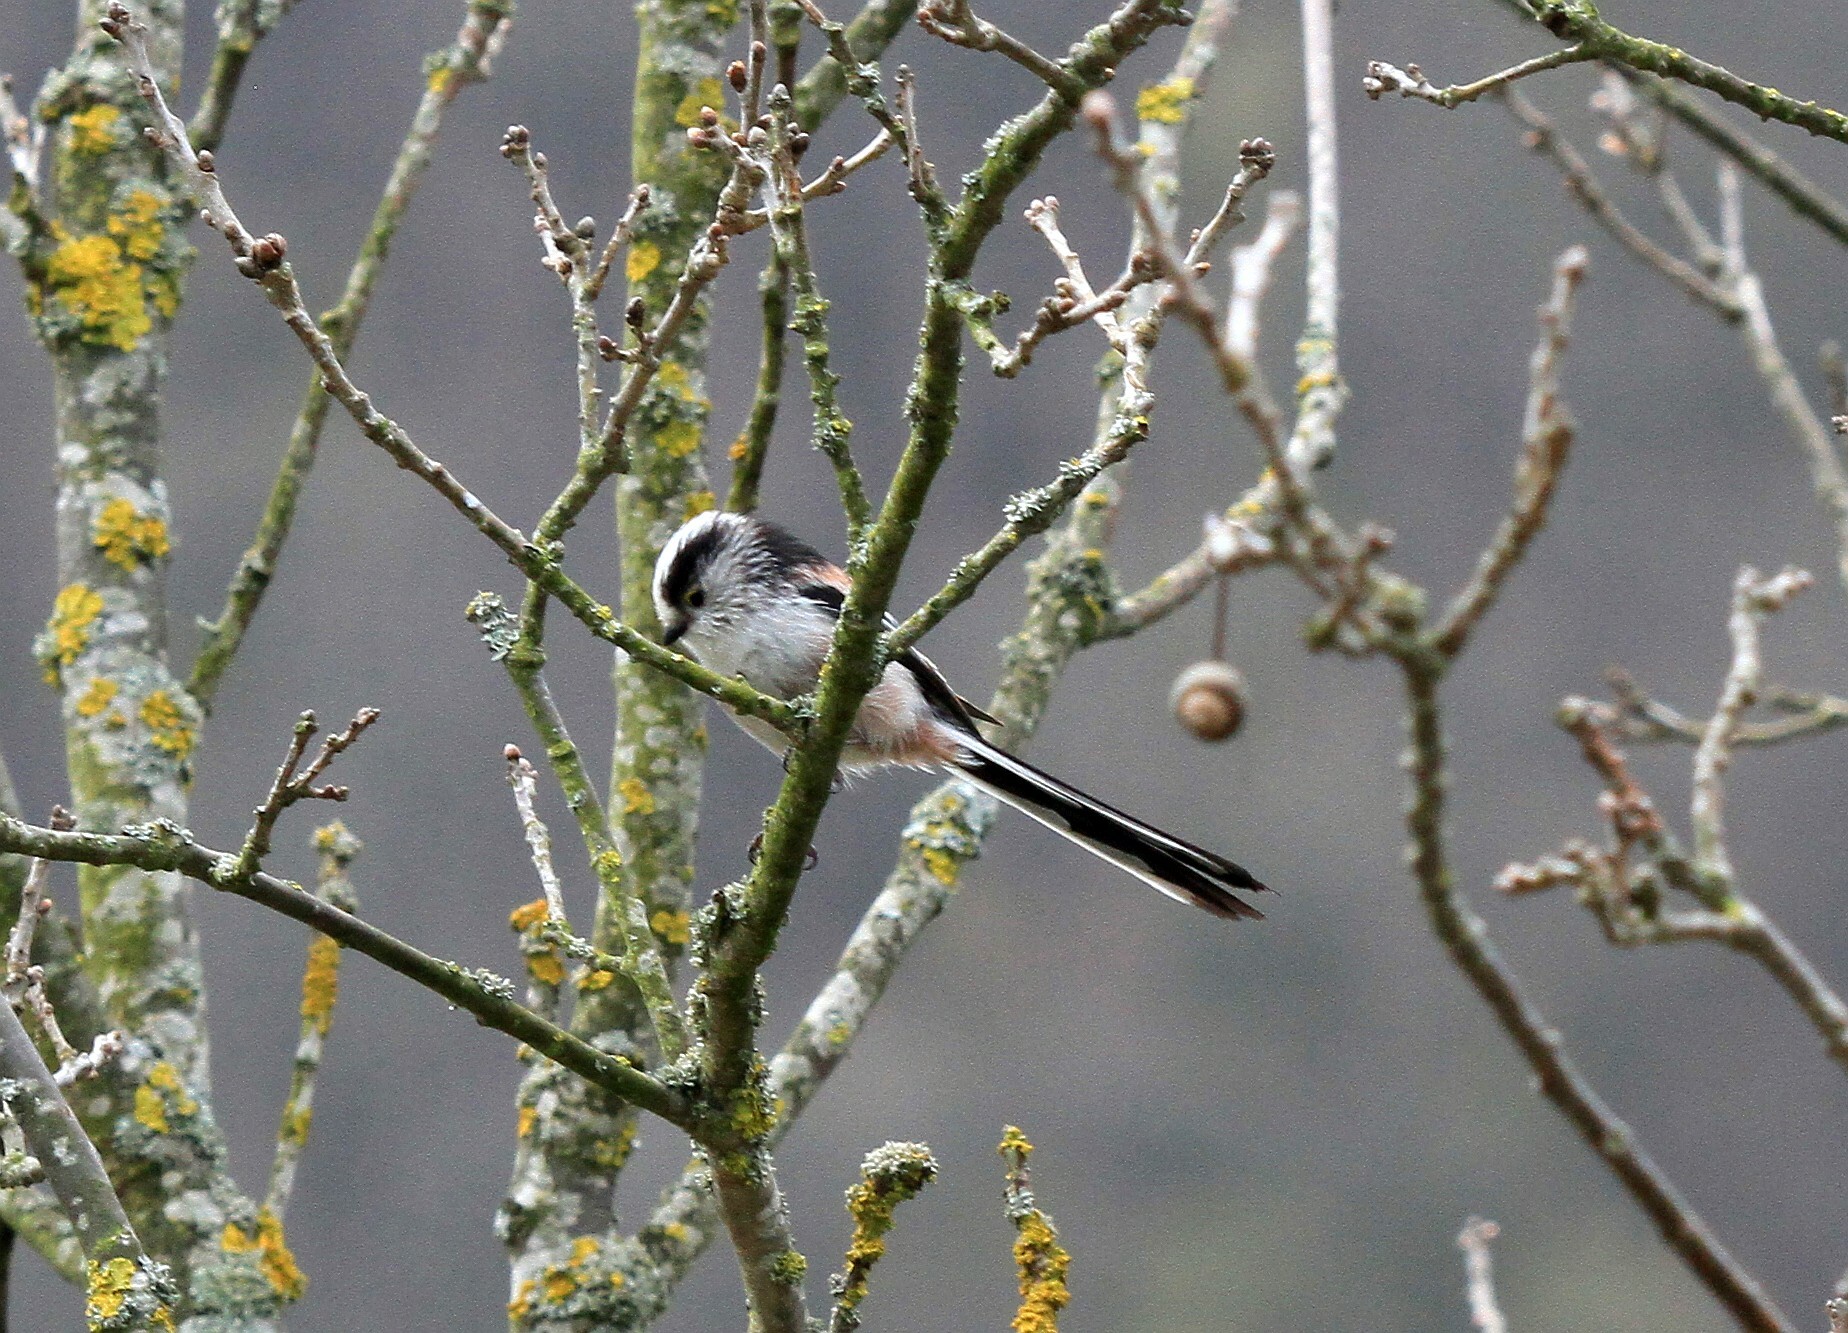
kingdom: Animalia
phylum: Chordata
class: Aves
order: Passeriformes
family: Aegithalidae
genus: Aegithalos
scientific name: Aegithalos caudatus
